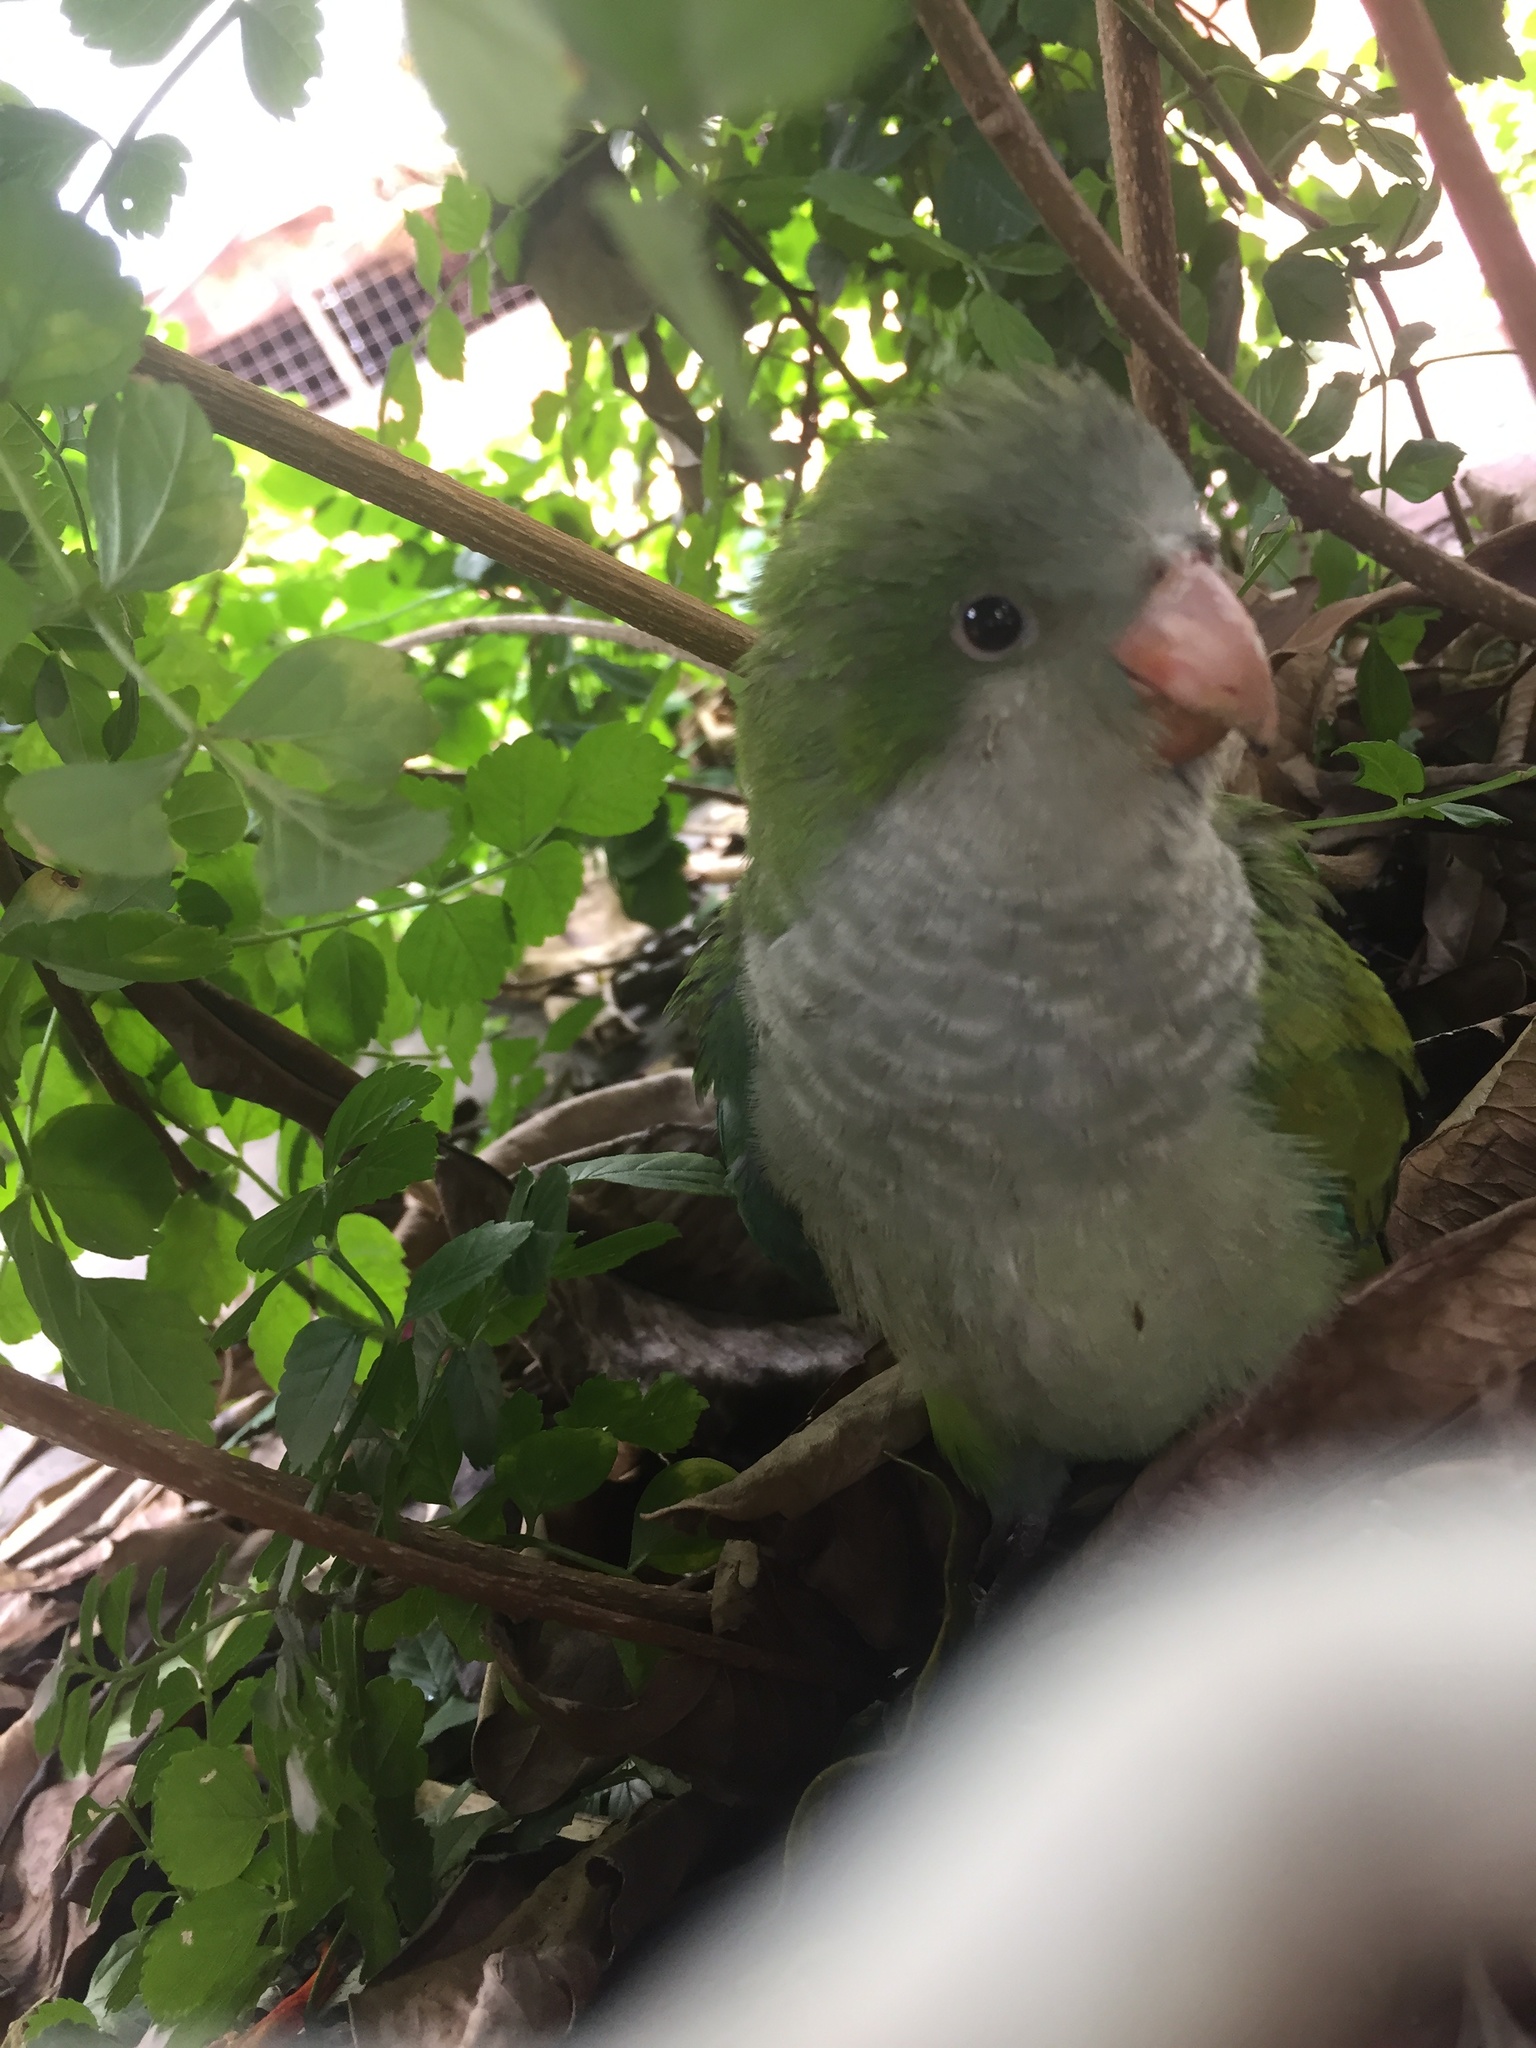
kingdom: Animalia
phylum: Chordata
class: Aves
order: Psittaciformes
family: Psittacidae
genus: Myiopsitta
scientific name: Myiopsitta monachus
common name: Monk parakeet
